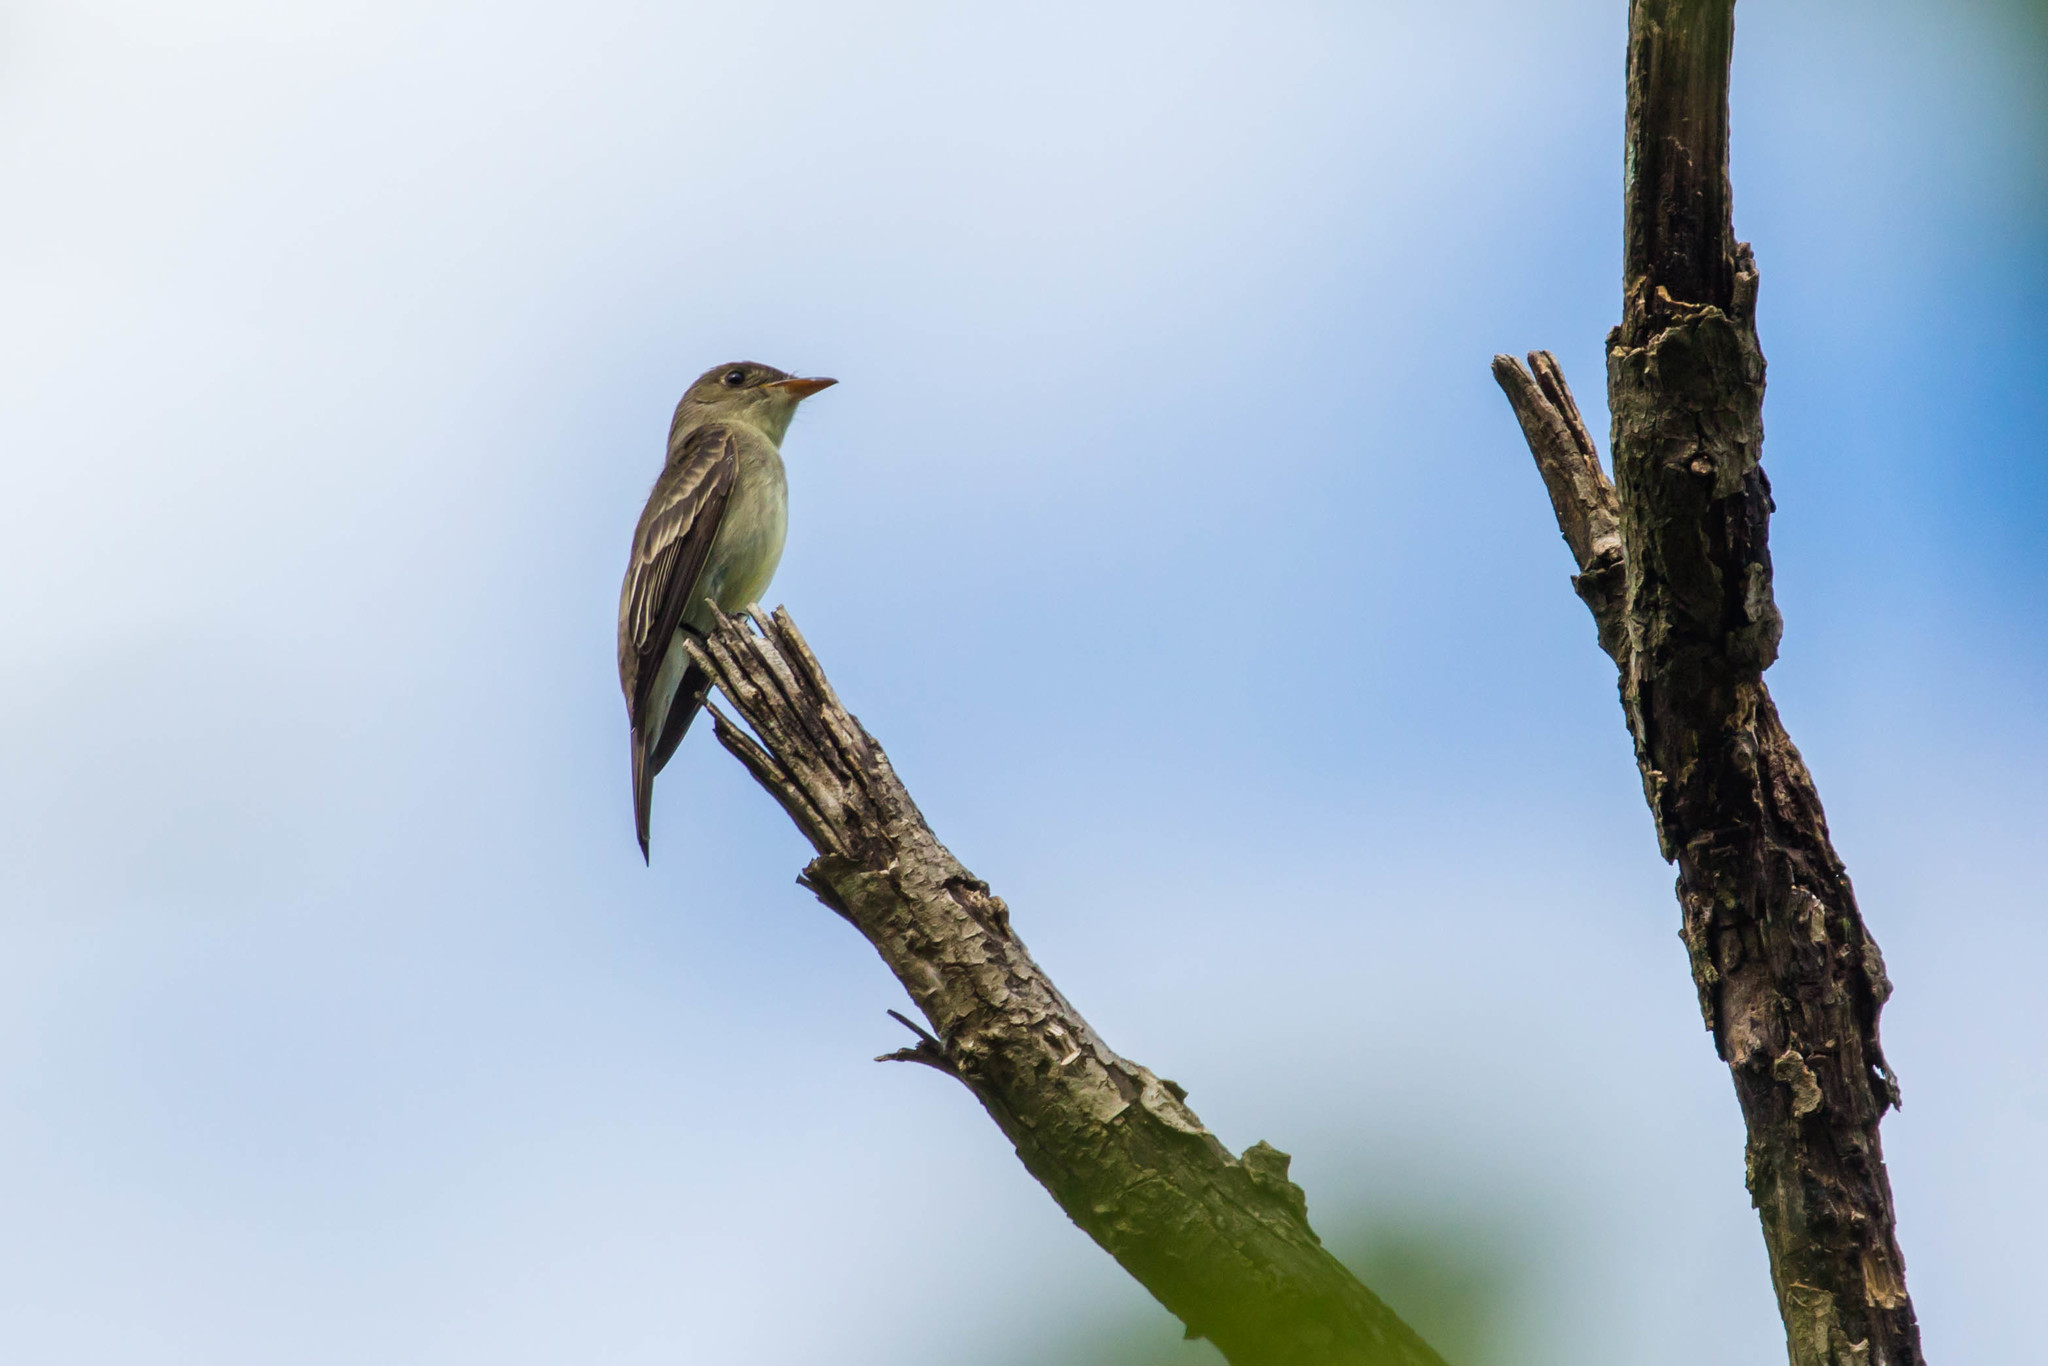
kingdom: Animalia
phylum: Chordata
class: Aves
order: Passeriformes
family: Tyrannidae
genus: Contopus
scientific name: Contopus virens
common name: Eastern wood-pewee
